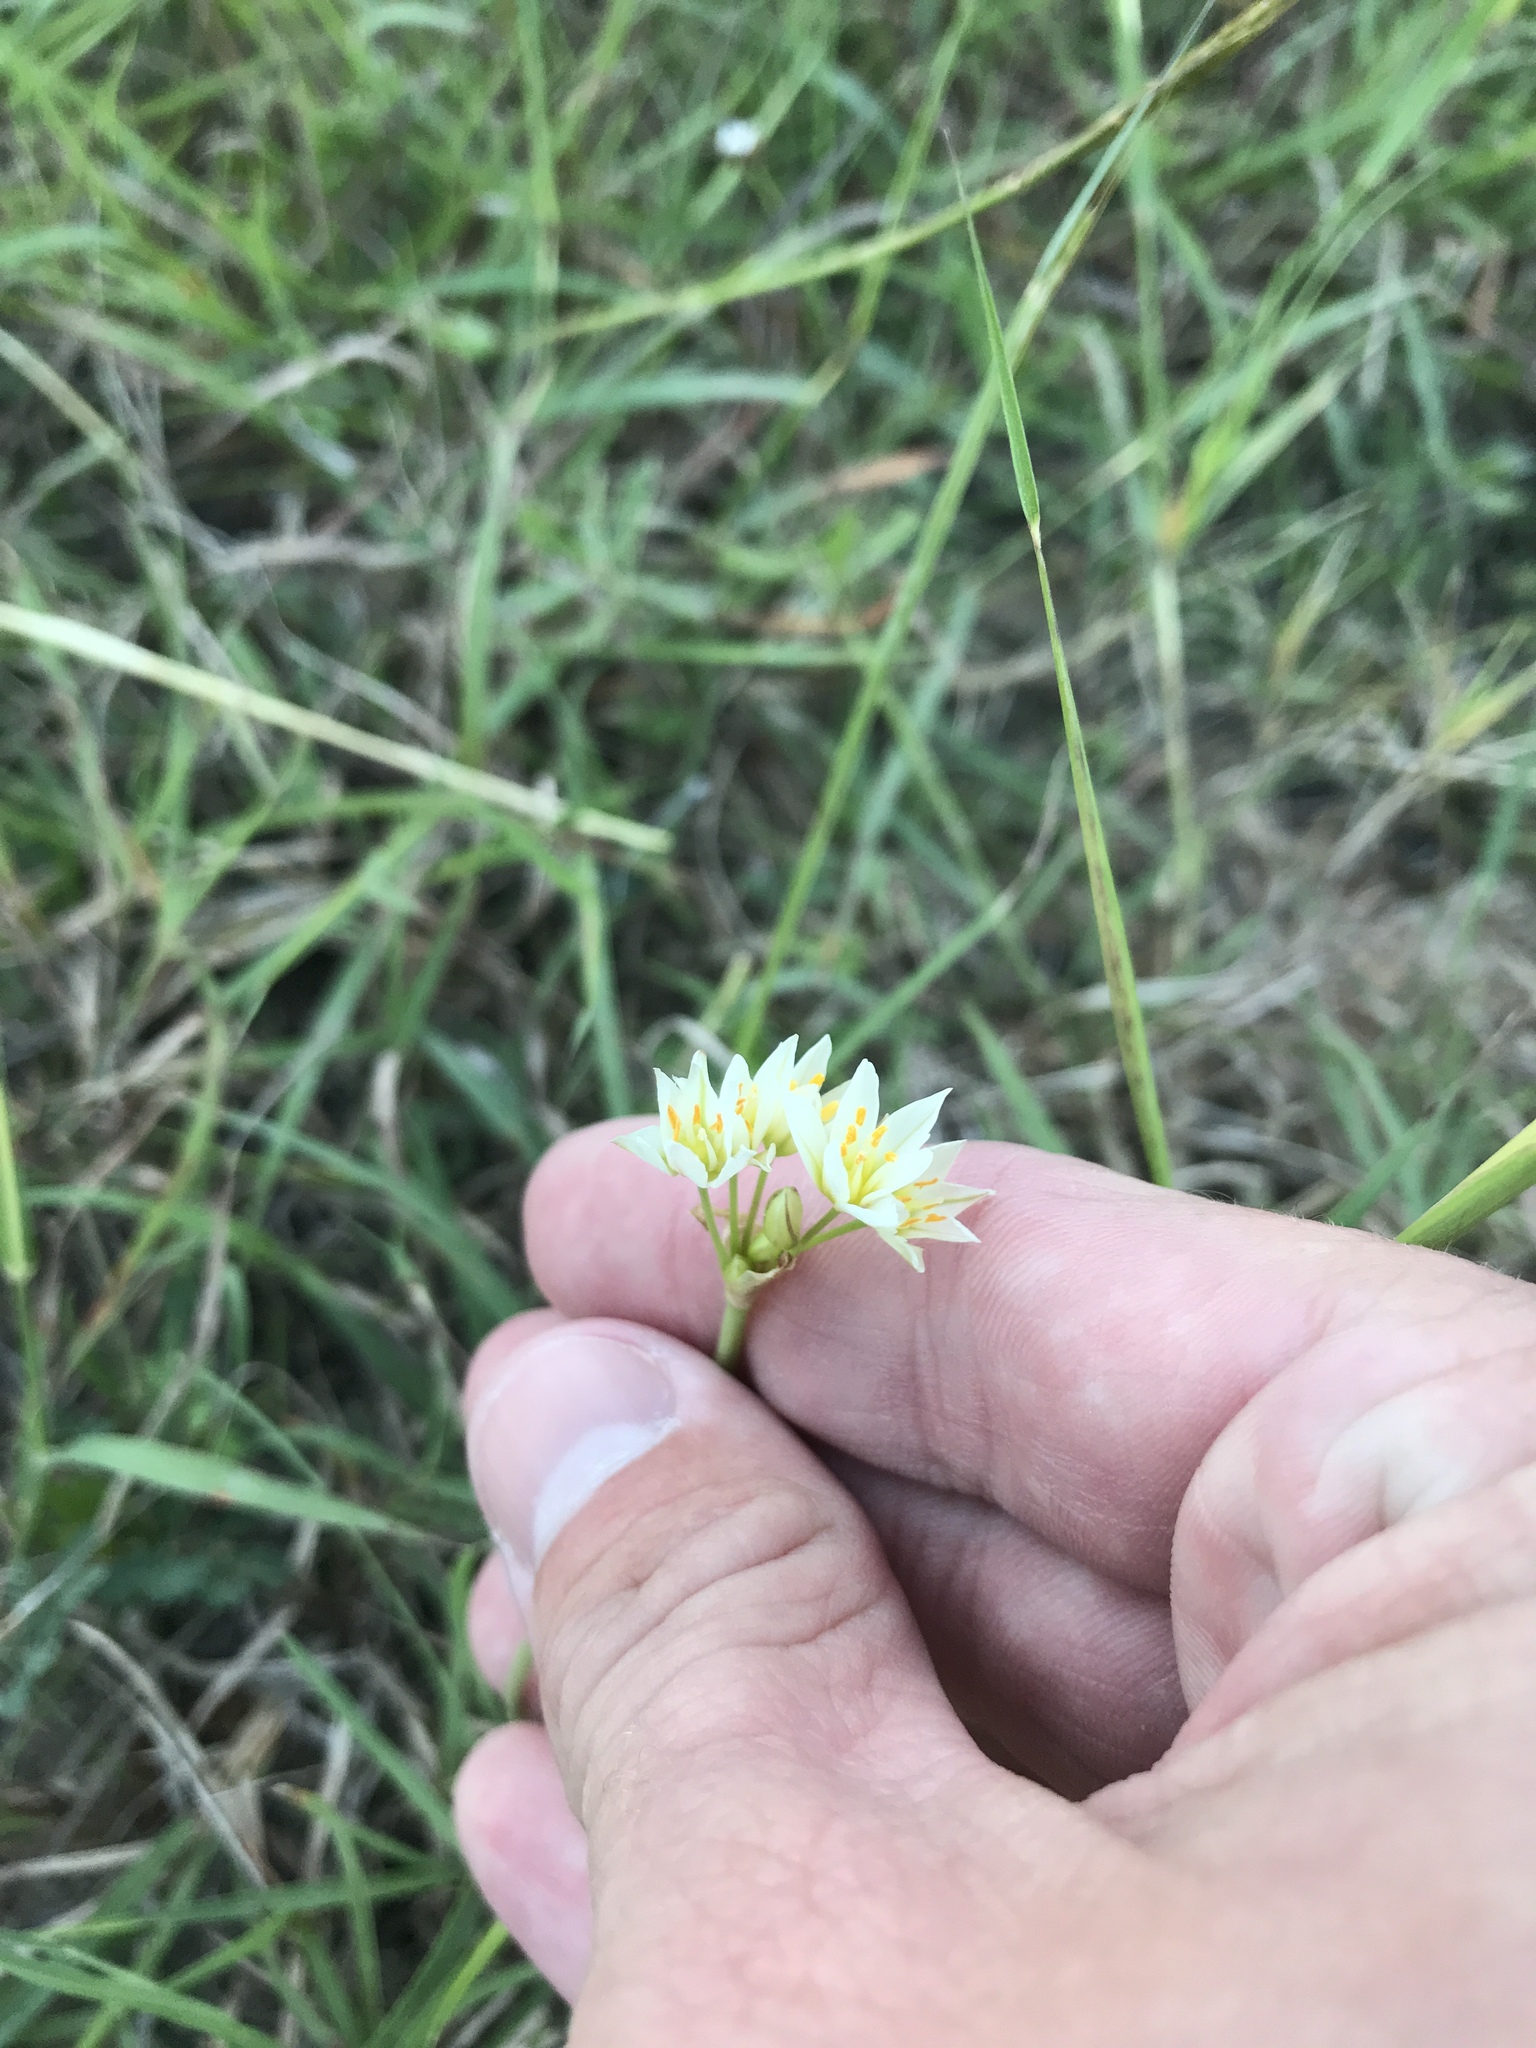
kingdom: Plantae
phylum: Tracheophyta
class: Liliopsida
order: Asparagales
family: Amaryllidaceae
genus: Nothoscordum
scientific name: Nothoscordum bivalve
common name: Crow-poison
